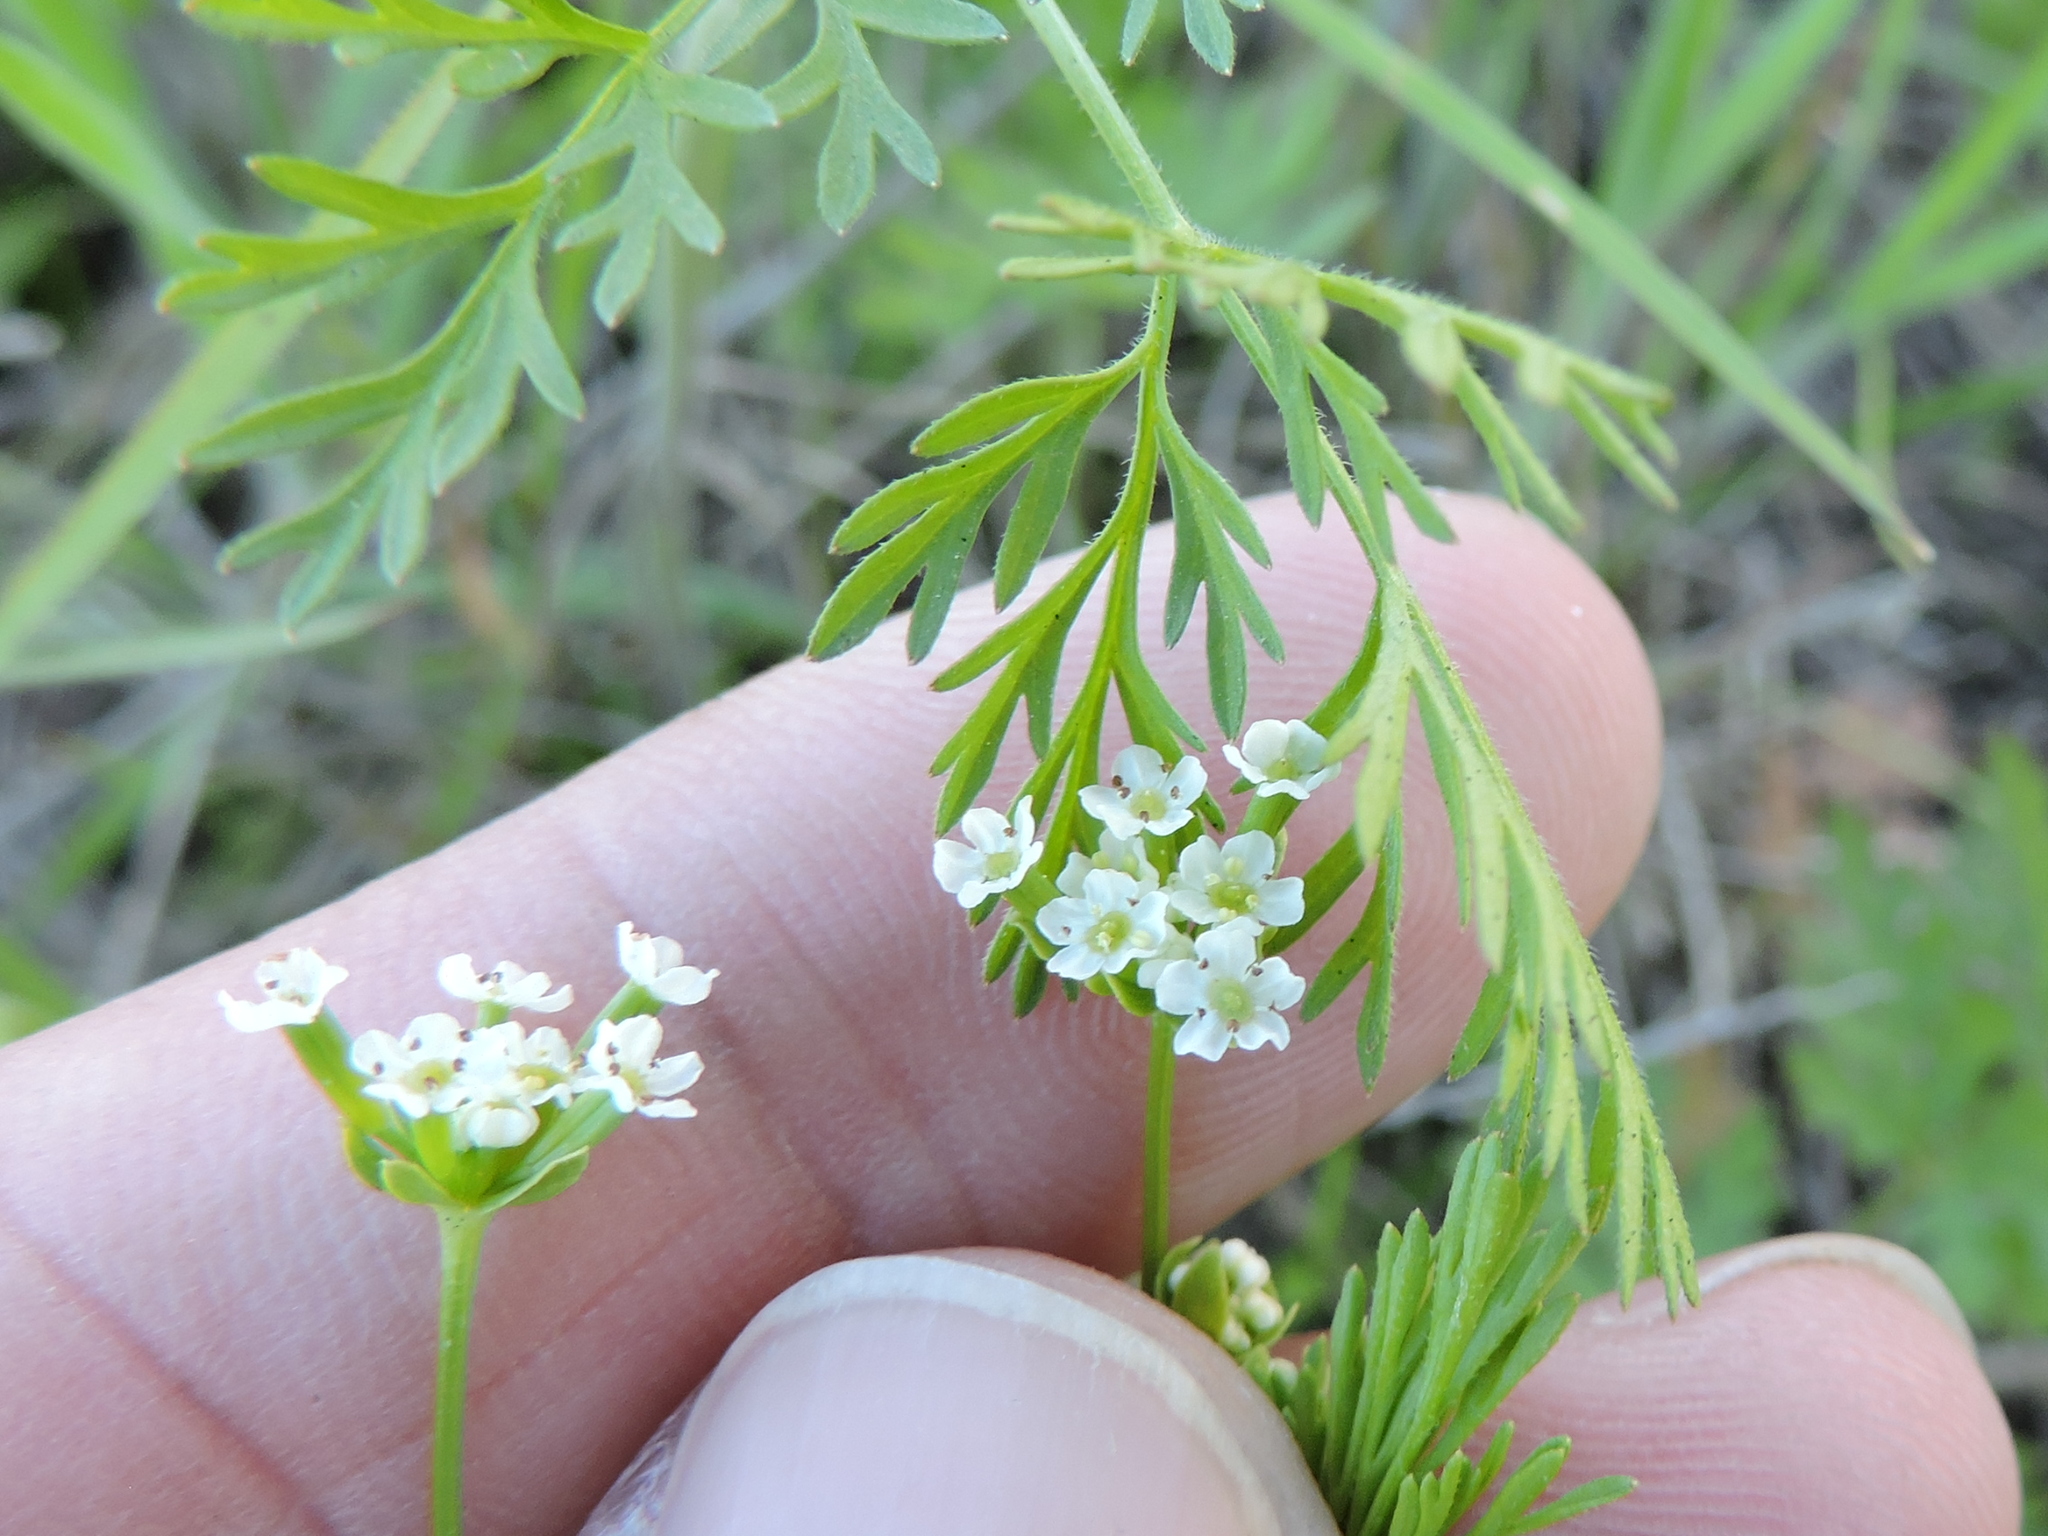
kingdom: Plantae
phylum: Tracheophyta
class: Magnoliopsida
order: Apiales
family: Apiaceae
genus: Chaerophyllum
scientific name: Chaerophyllum tainturieri
